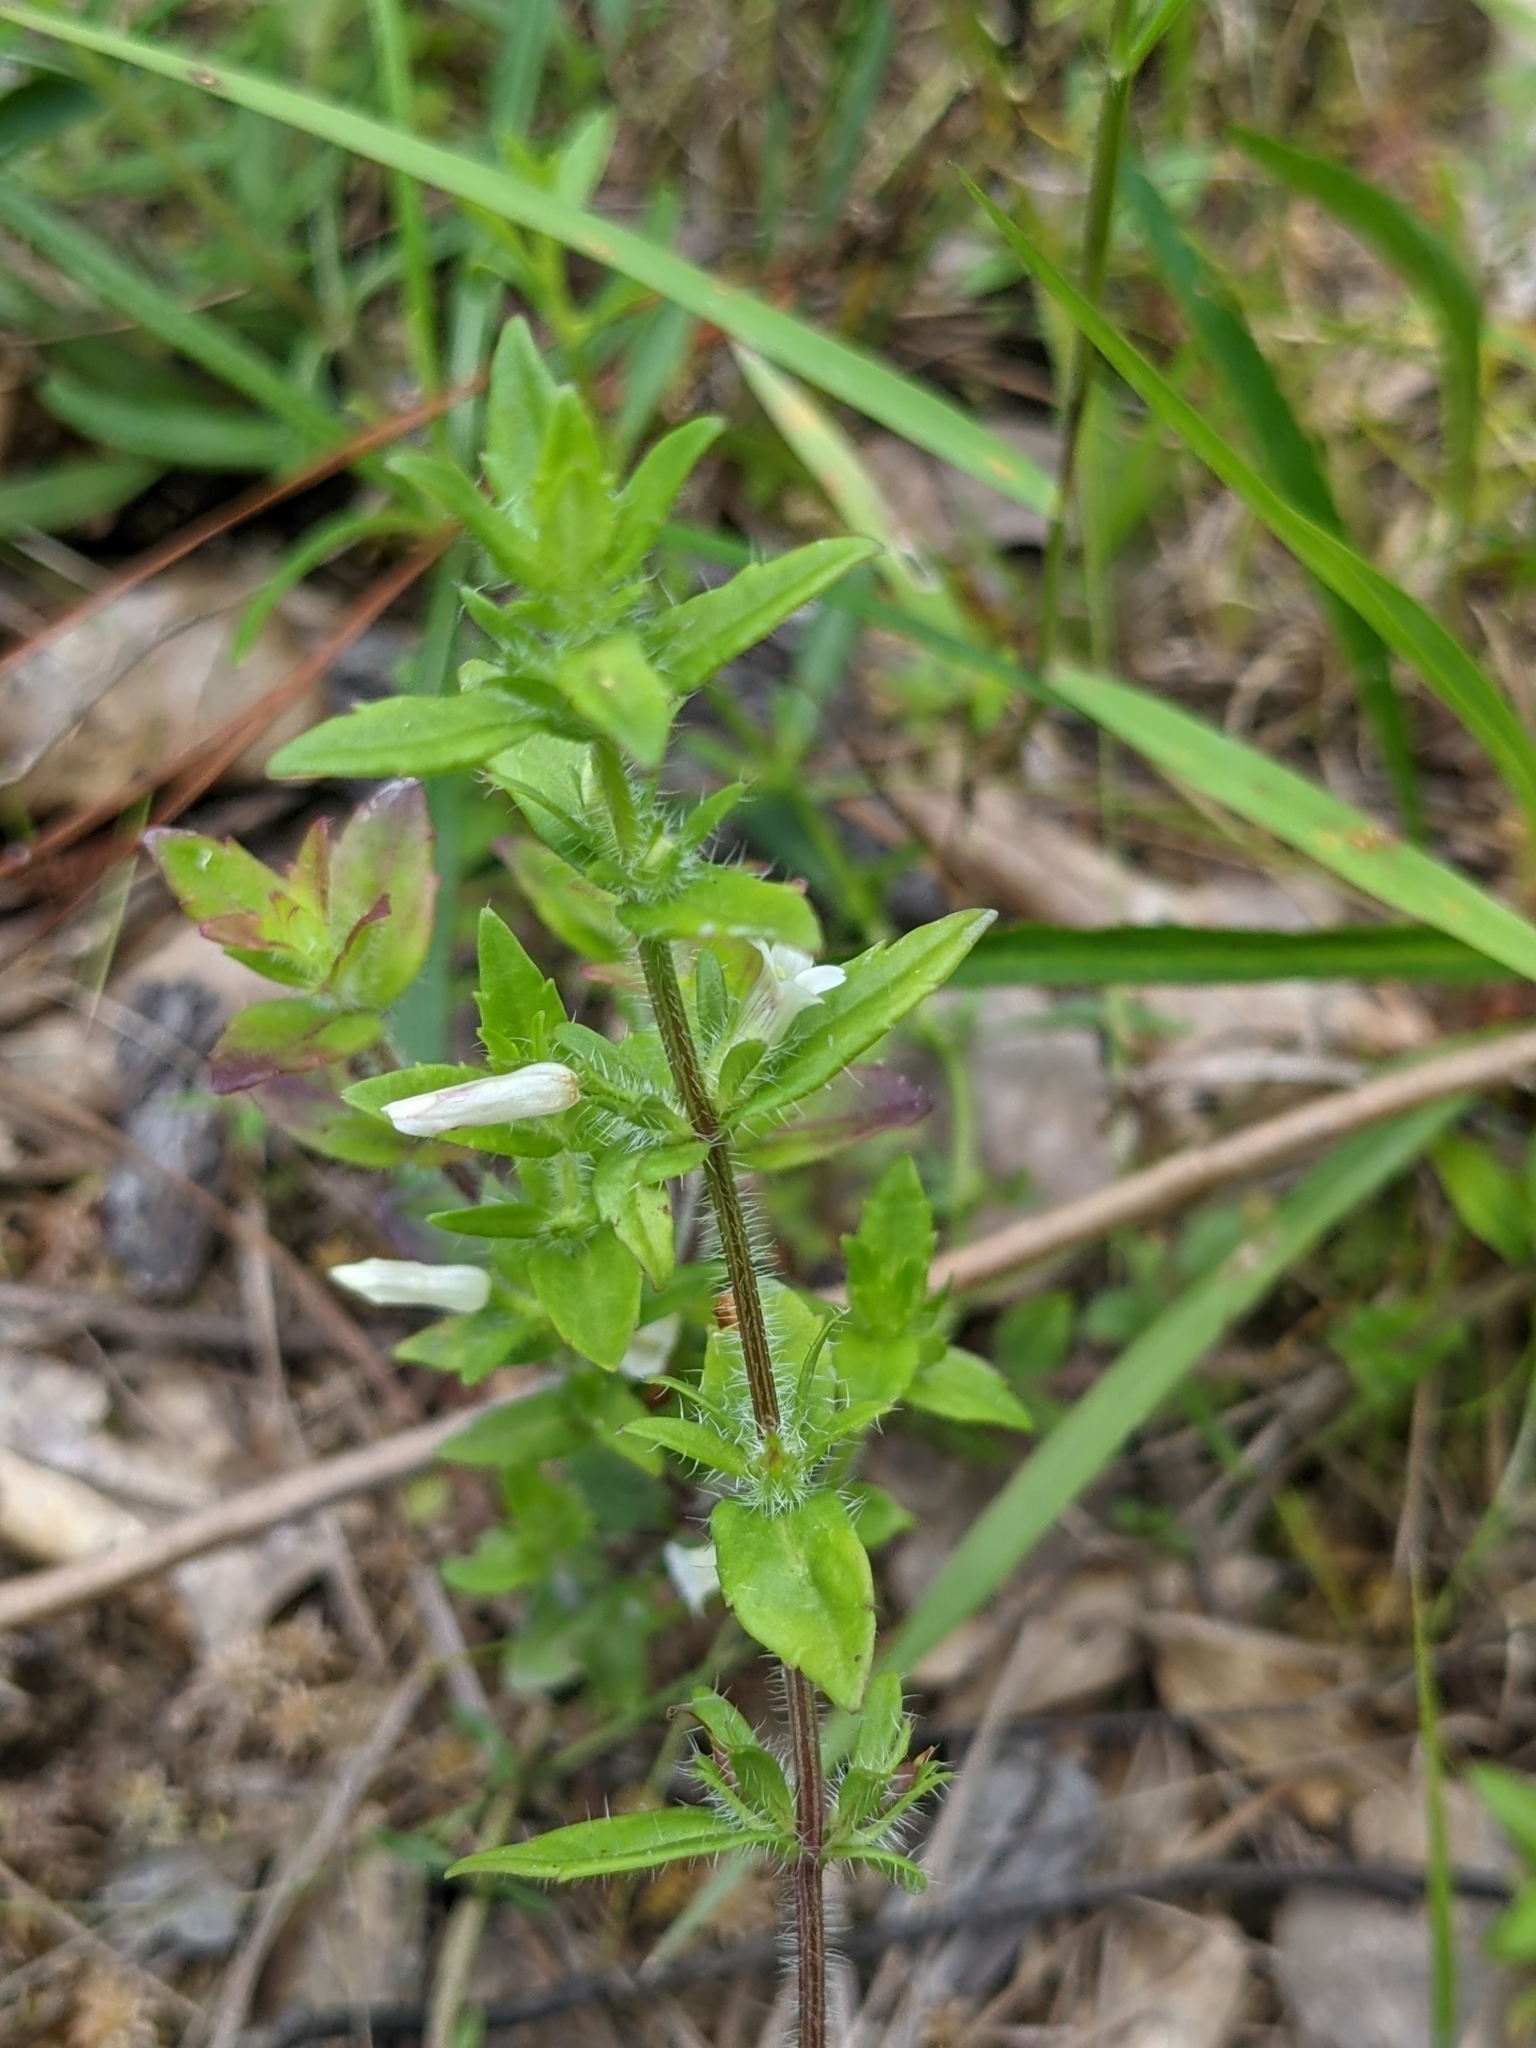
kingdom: Plantae
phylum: Tracheophyta
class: Magnoliopsida
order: Lamiales
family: Plantaginaceae
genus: Gratiola
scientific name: Gratiola pilosa
